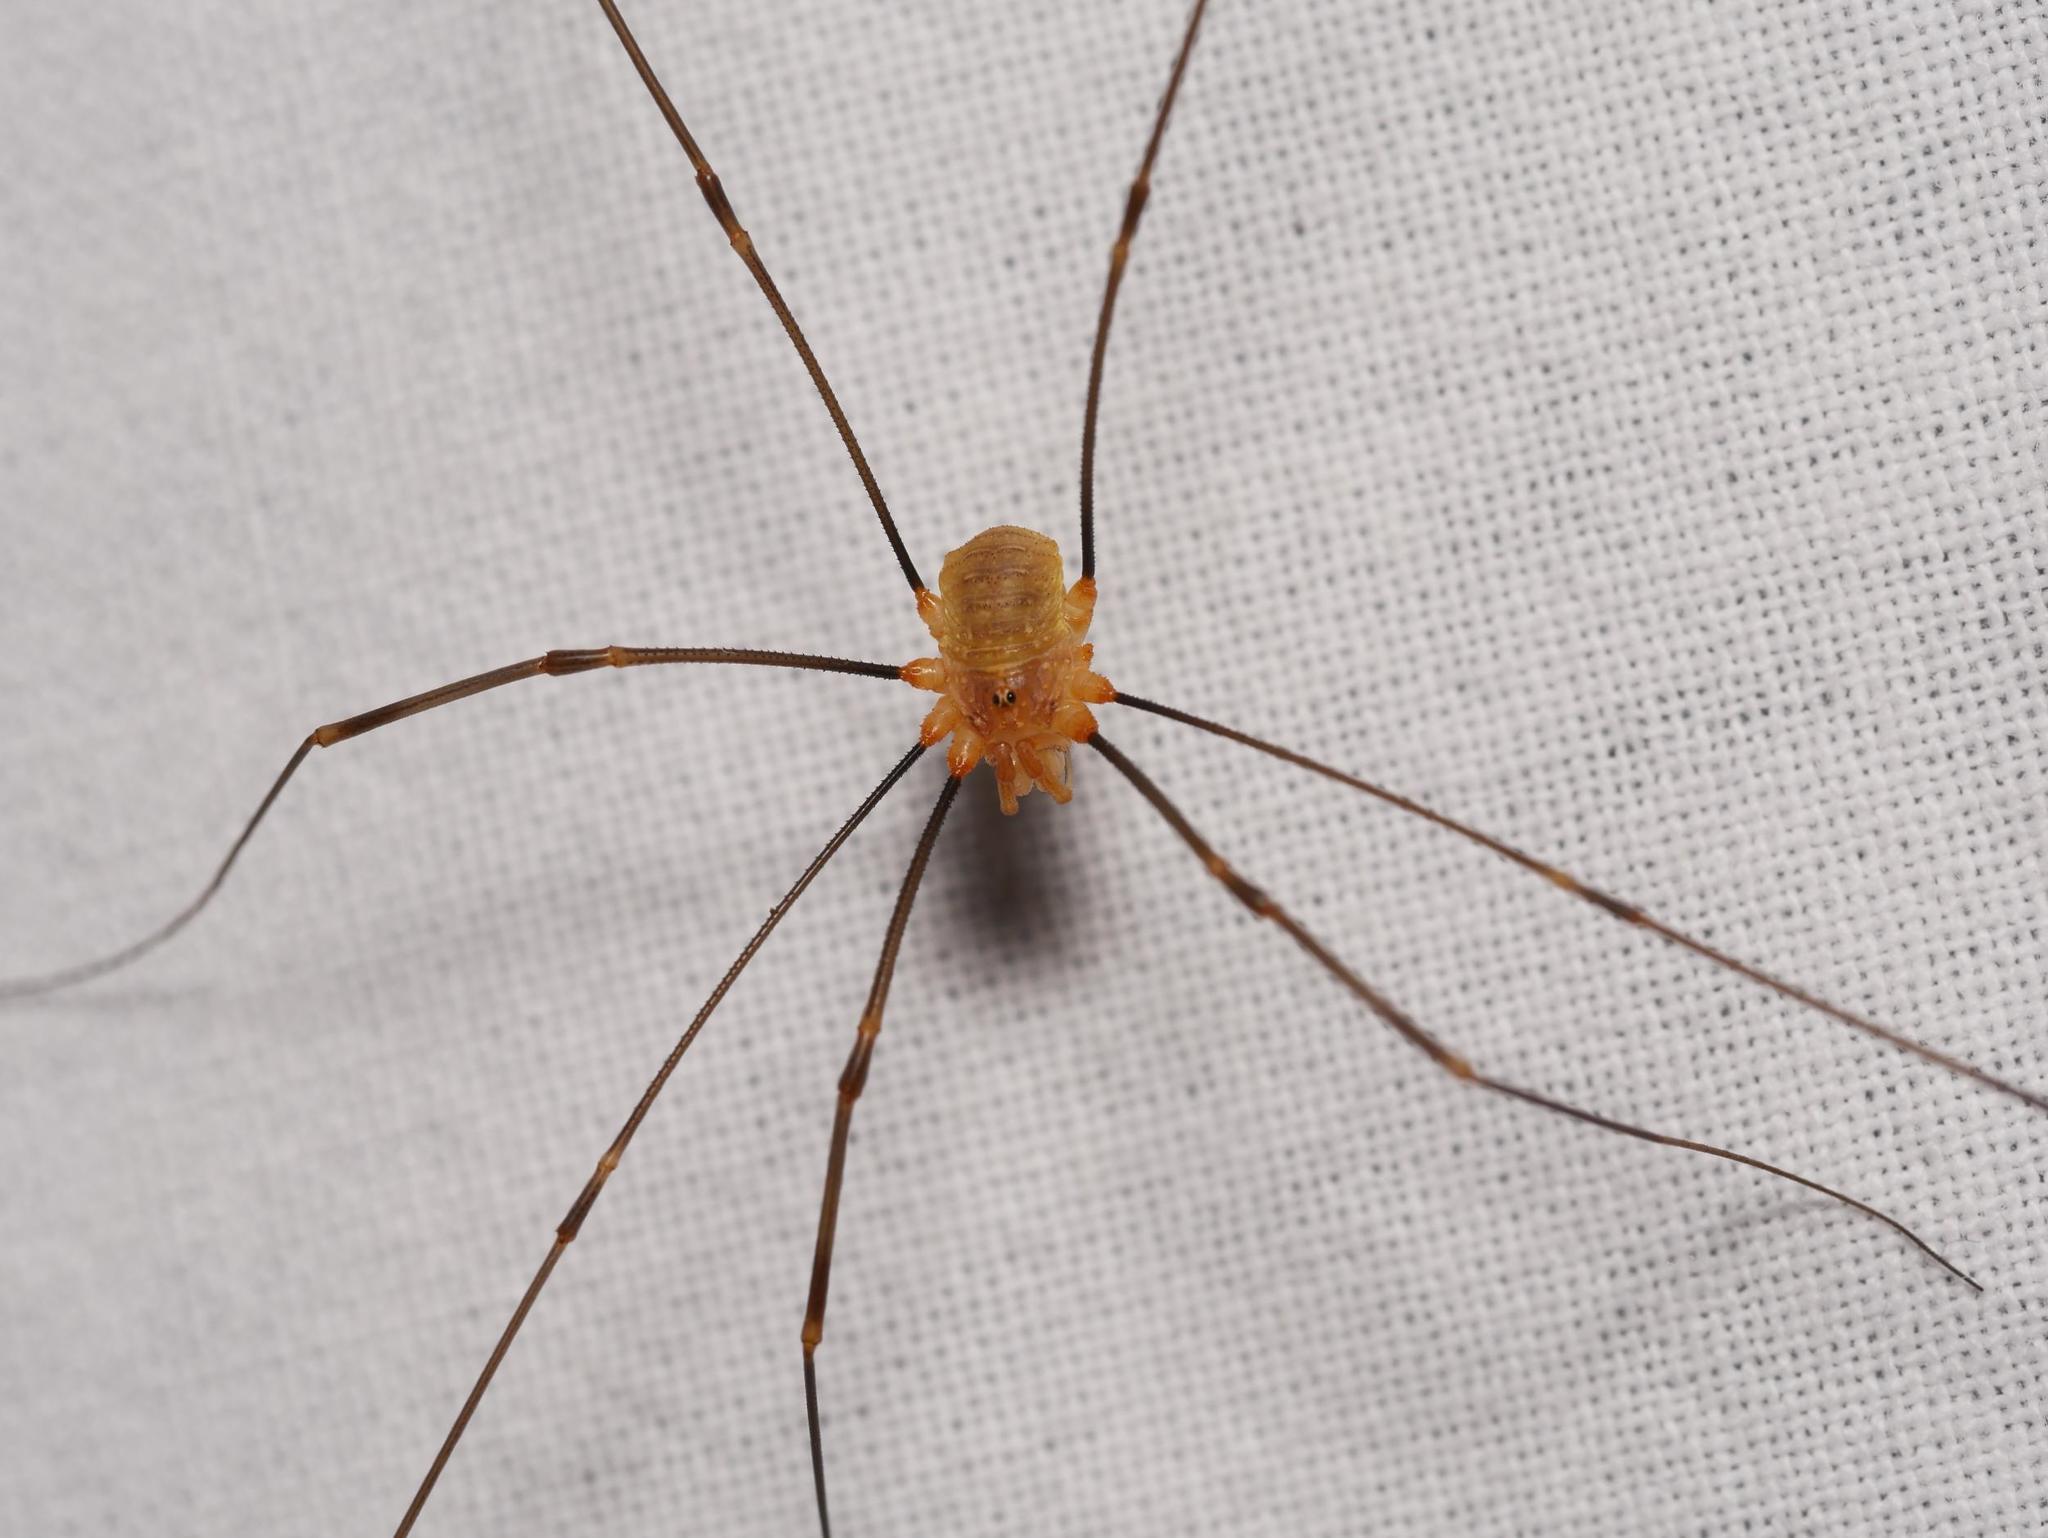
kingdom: Animalia
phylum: Arthropoda
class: Arachnida
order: Opiliones
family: Phalangiidae
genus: Opilio
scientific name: Opilio canestrinii
